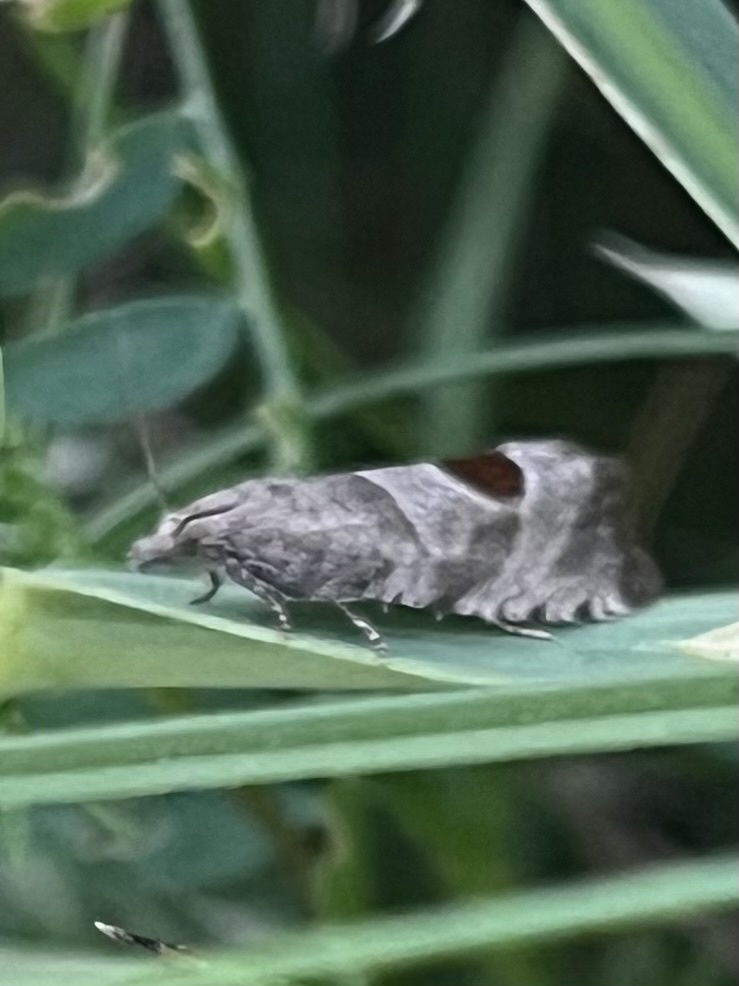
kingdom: Animalia
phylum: Arthropoda
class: Insecta
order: Lepidoptera
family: Tortricidae
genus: Notocelia
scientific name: Notocelia uddmanniana
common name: Bramble shoot moth
